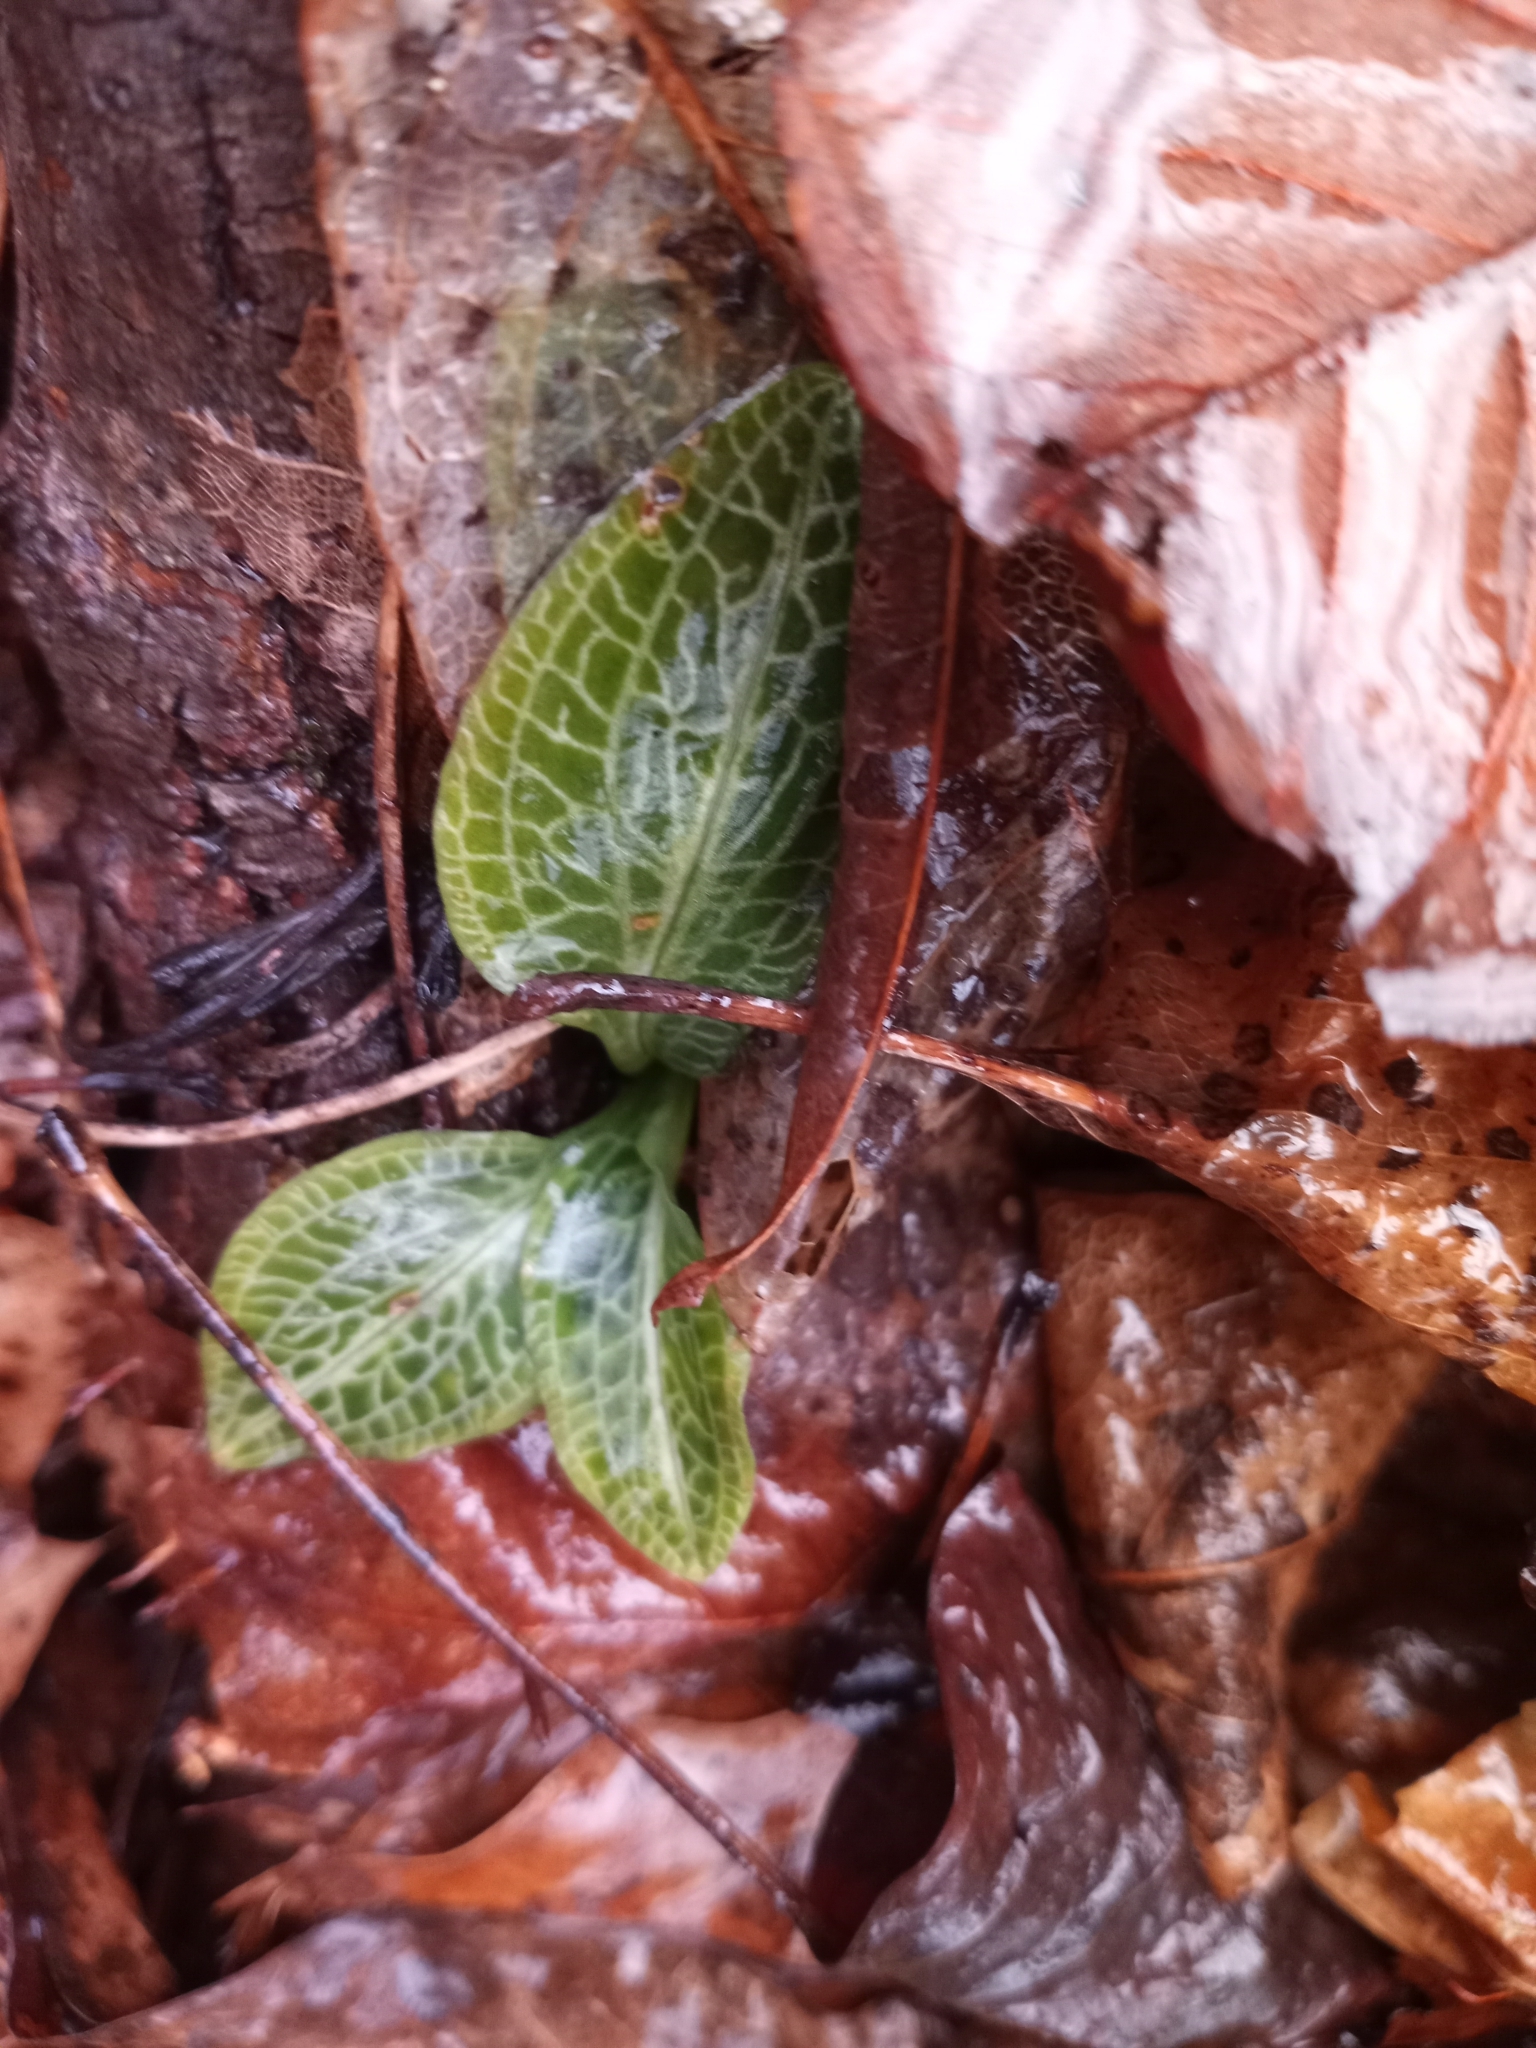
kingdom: Plantae
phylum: Tracheophyta
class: Liliopsida
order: Asparagales
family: Orchidaceae
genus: Goodyera
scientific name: Goodyera pubescens
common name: Downy rattlesnake-plantain
